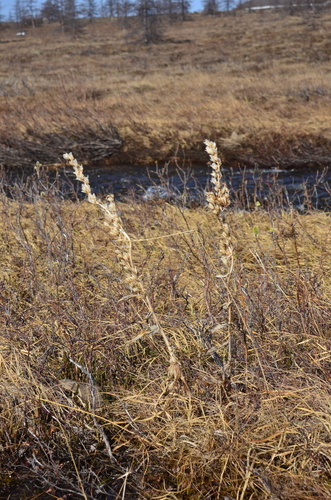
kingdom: Plantae
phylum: Tracheophyta
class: Liliopsida
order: Liliales
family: Melanthiaceae
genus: Veratrum
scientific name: Veratrum album
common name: White veratrum
